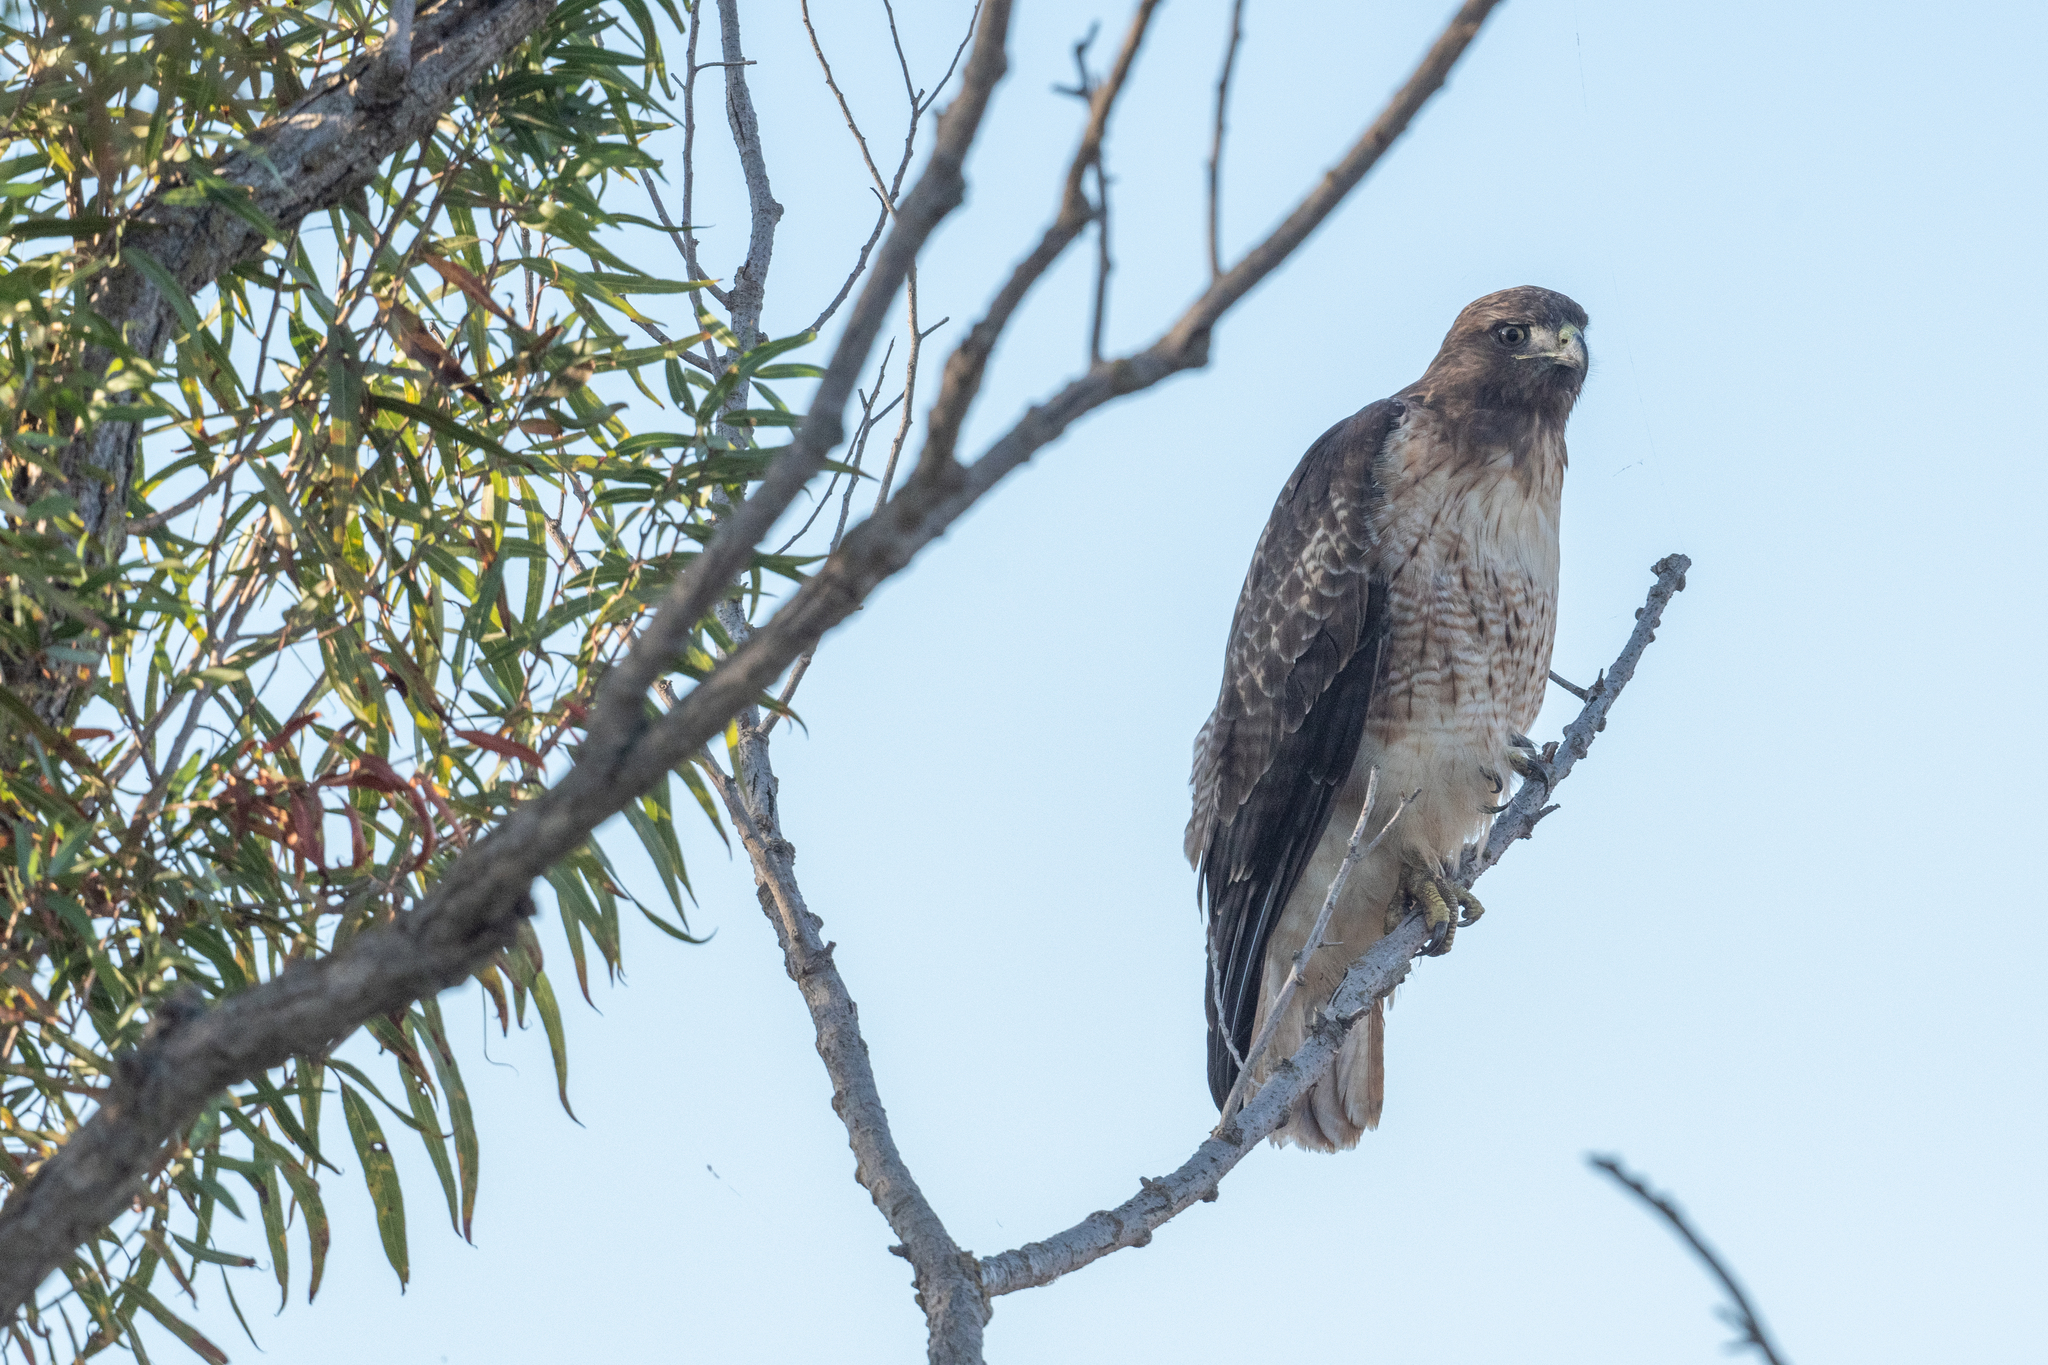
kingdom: Animalia
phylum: Chordata
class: Aves
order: Accipitriformes
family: Accipitridae
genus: Buteo
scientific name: Buteo jamaicensis
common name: Red-tailed hawk
